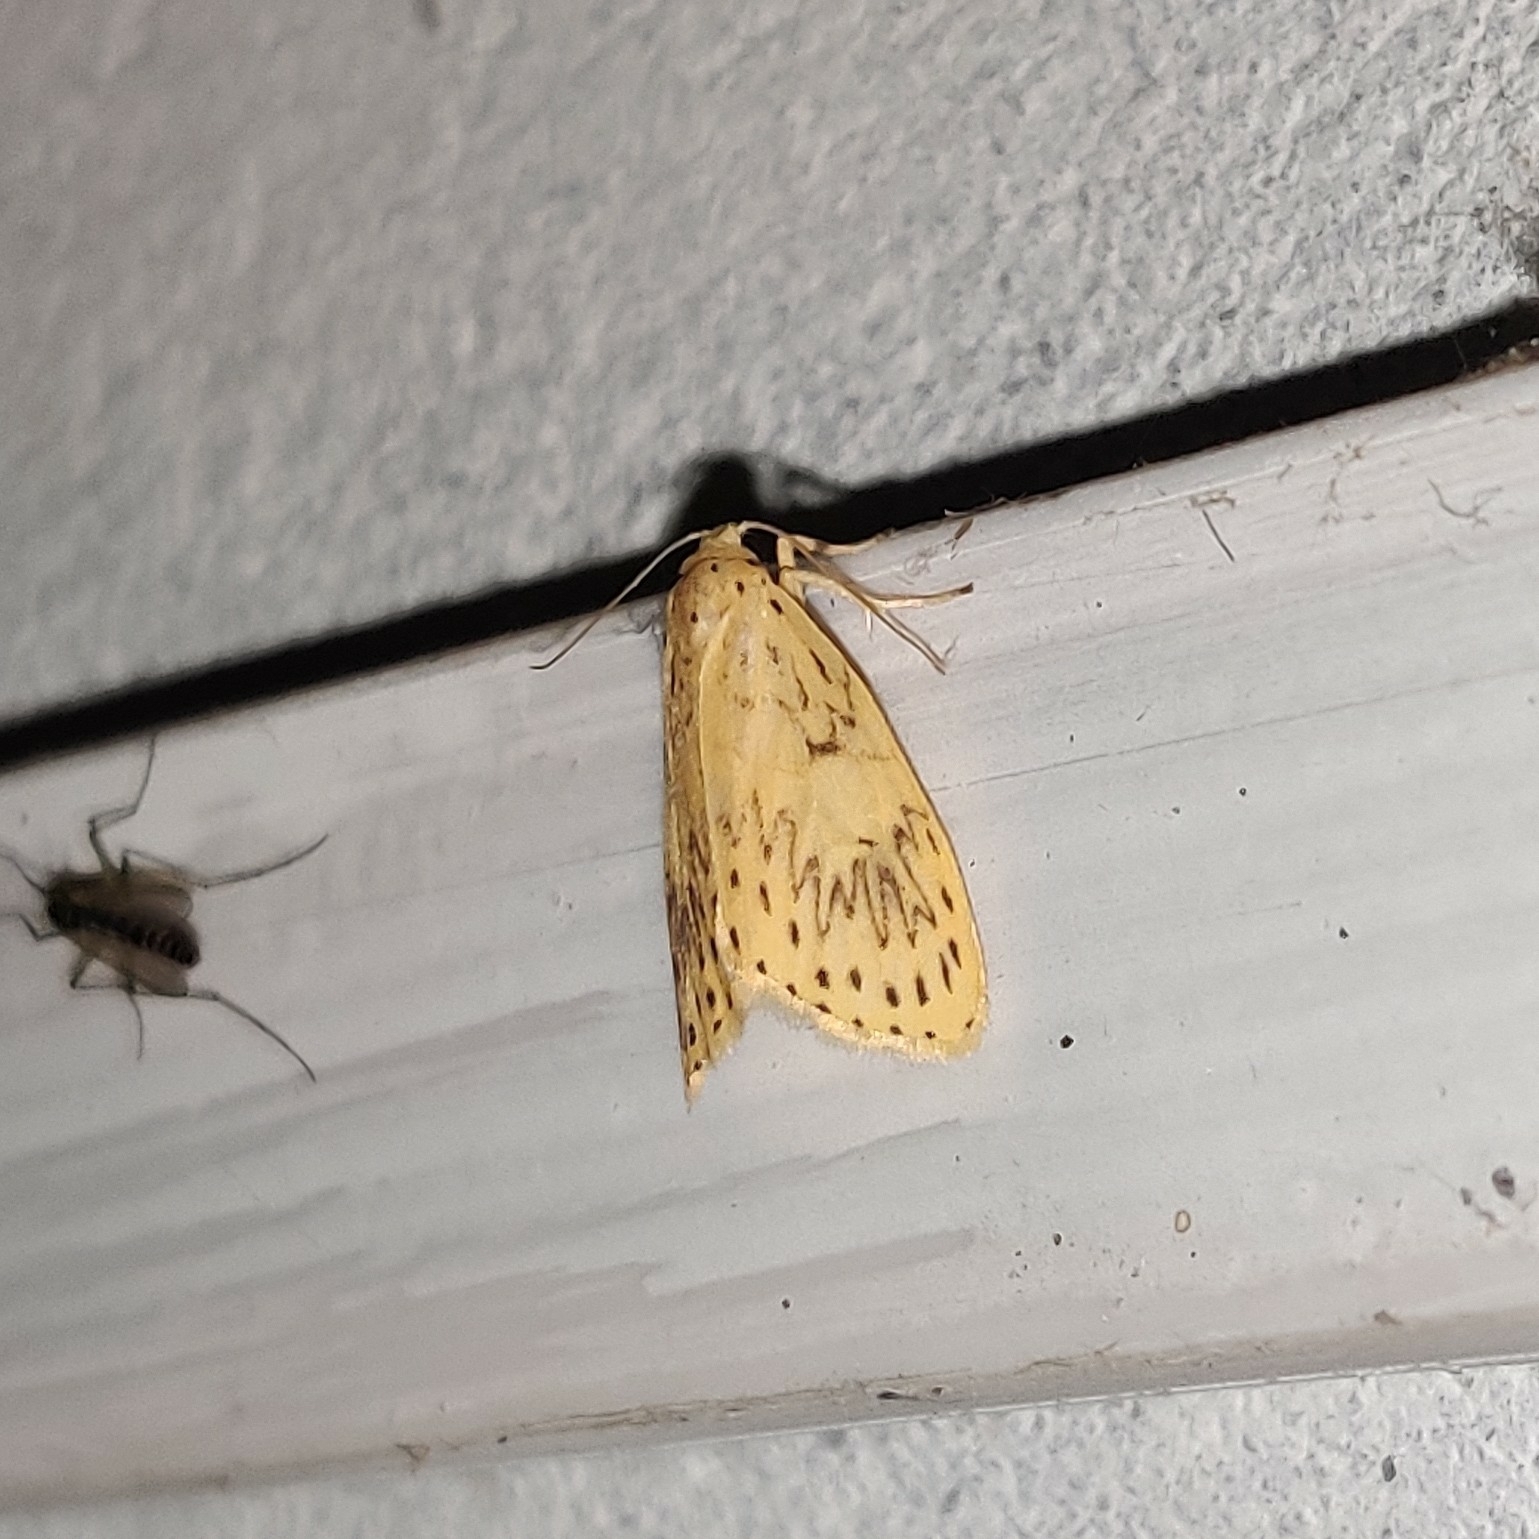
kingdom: Animalia
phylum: Arthropoda
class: Insecta
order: Lepidoptera
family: Erebidae
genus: Pseudobarsine
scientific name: Pseudobarsine bombdilensis
